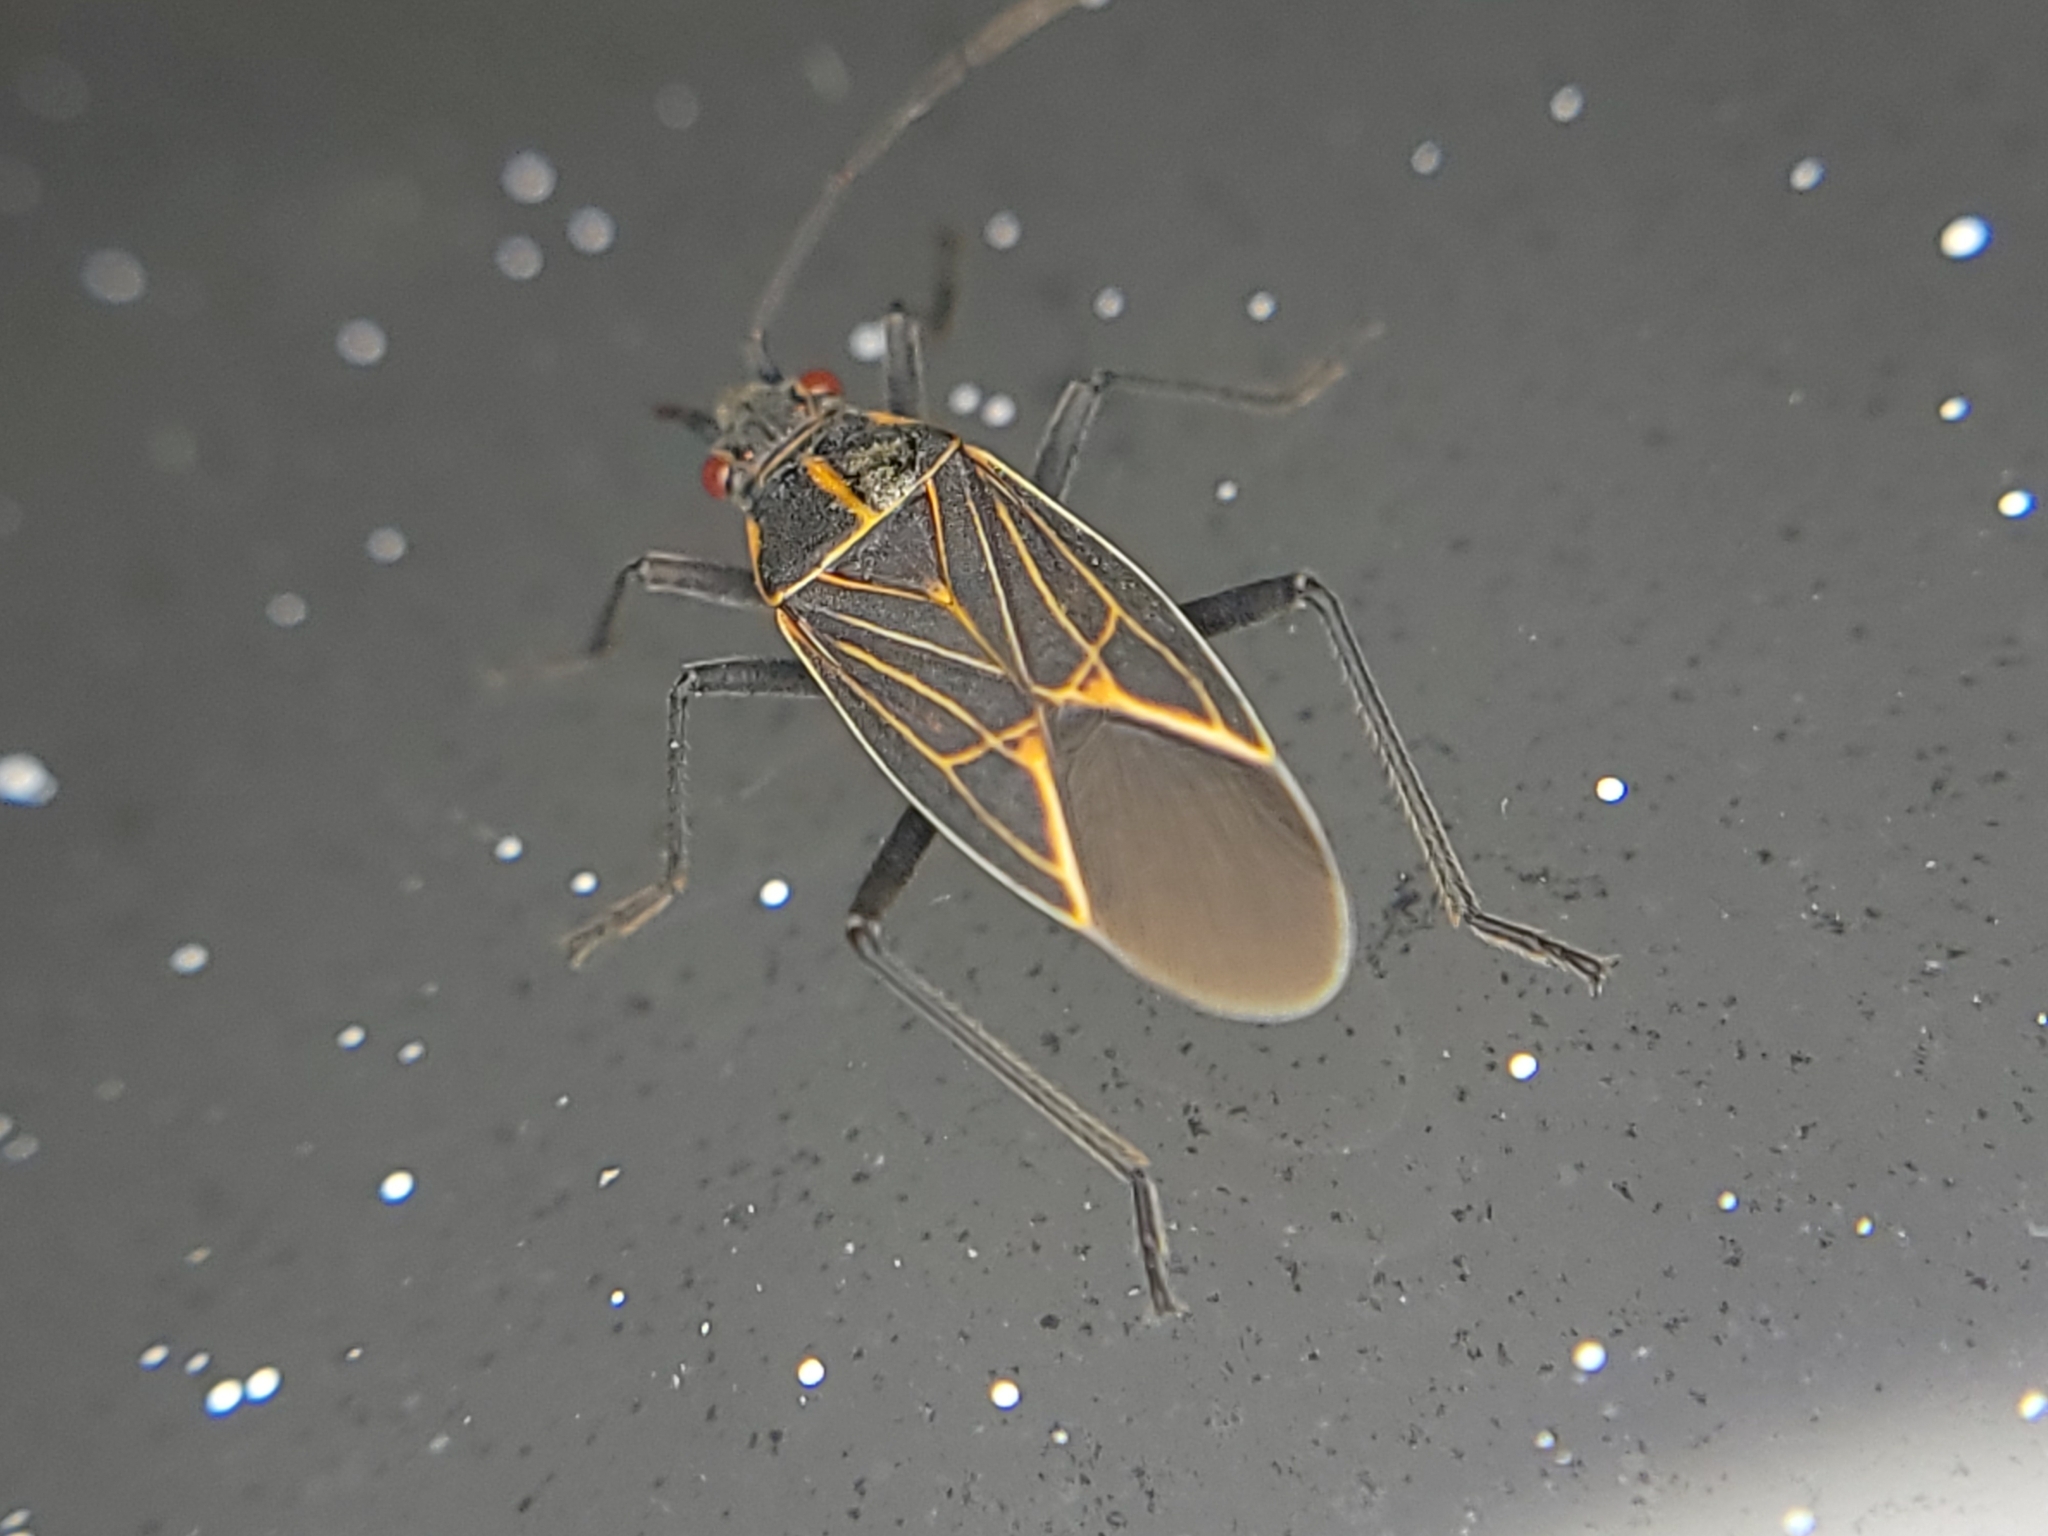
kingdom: Animalia
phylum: Arthropoda
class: Insecta
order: Hemiptera
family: Rhopalidae
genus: Boisea
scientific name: Boisea rubrolineata
